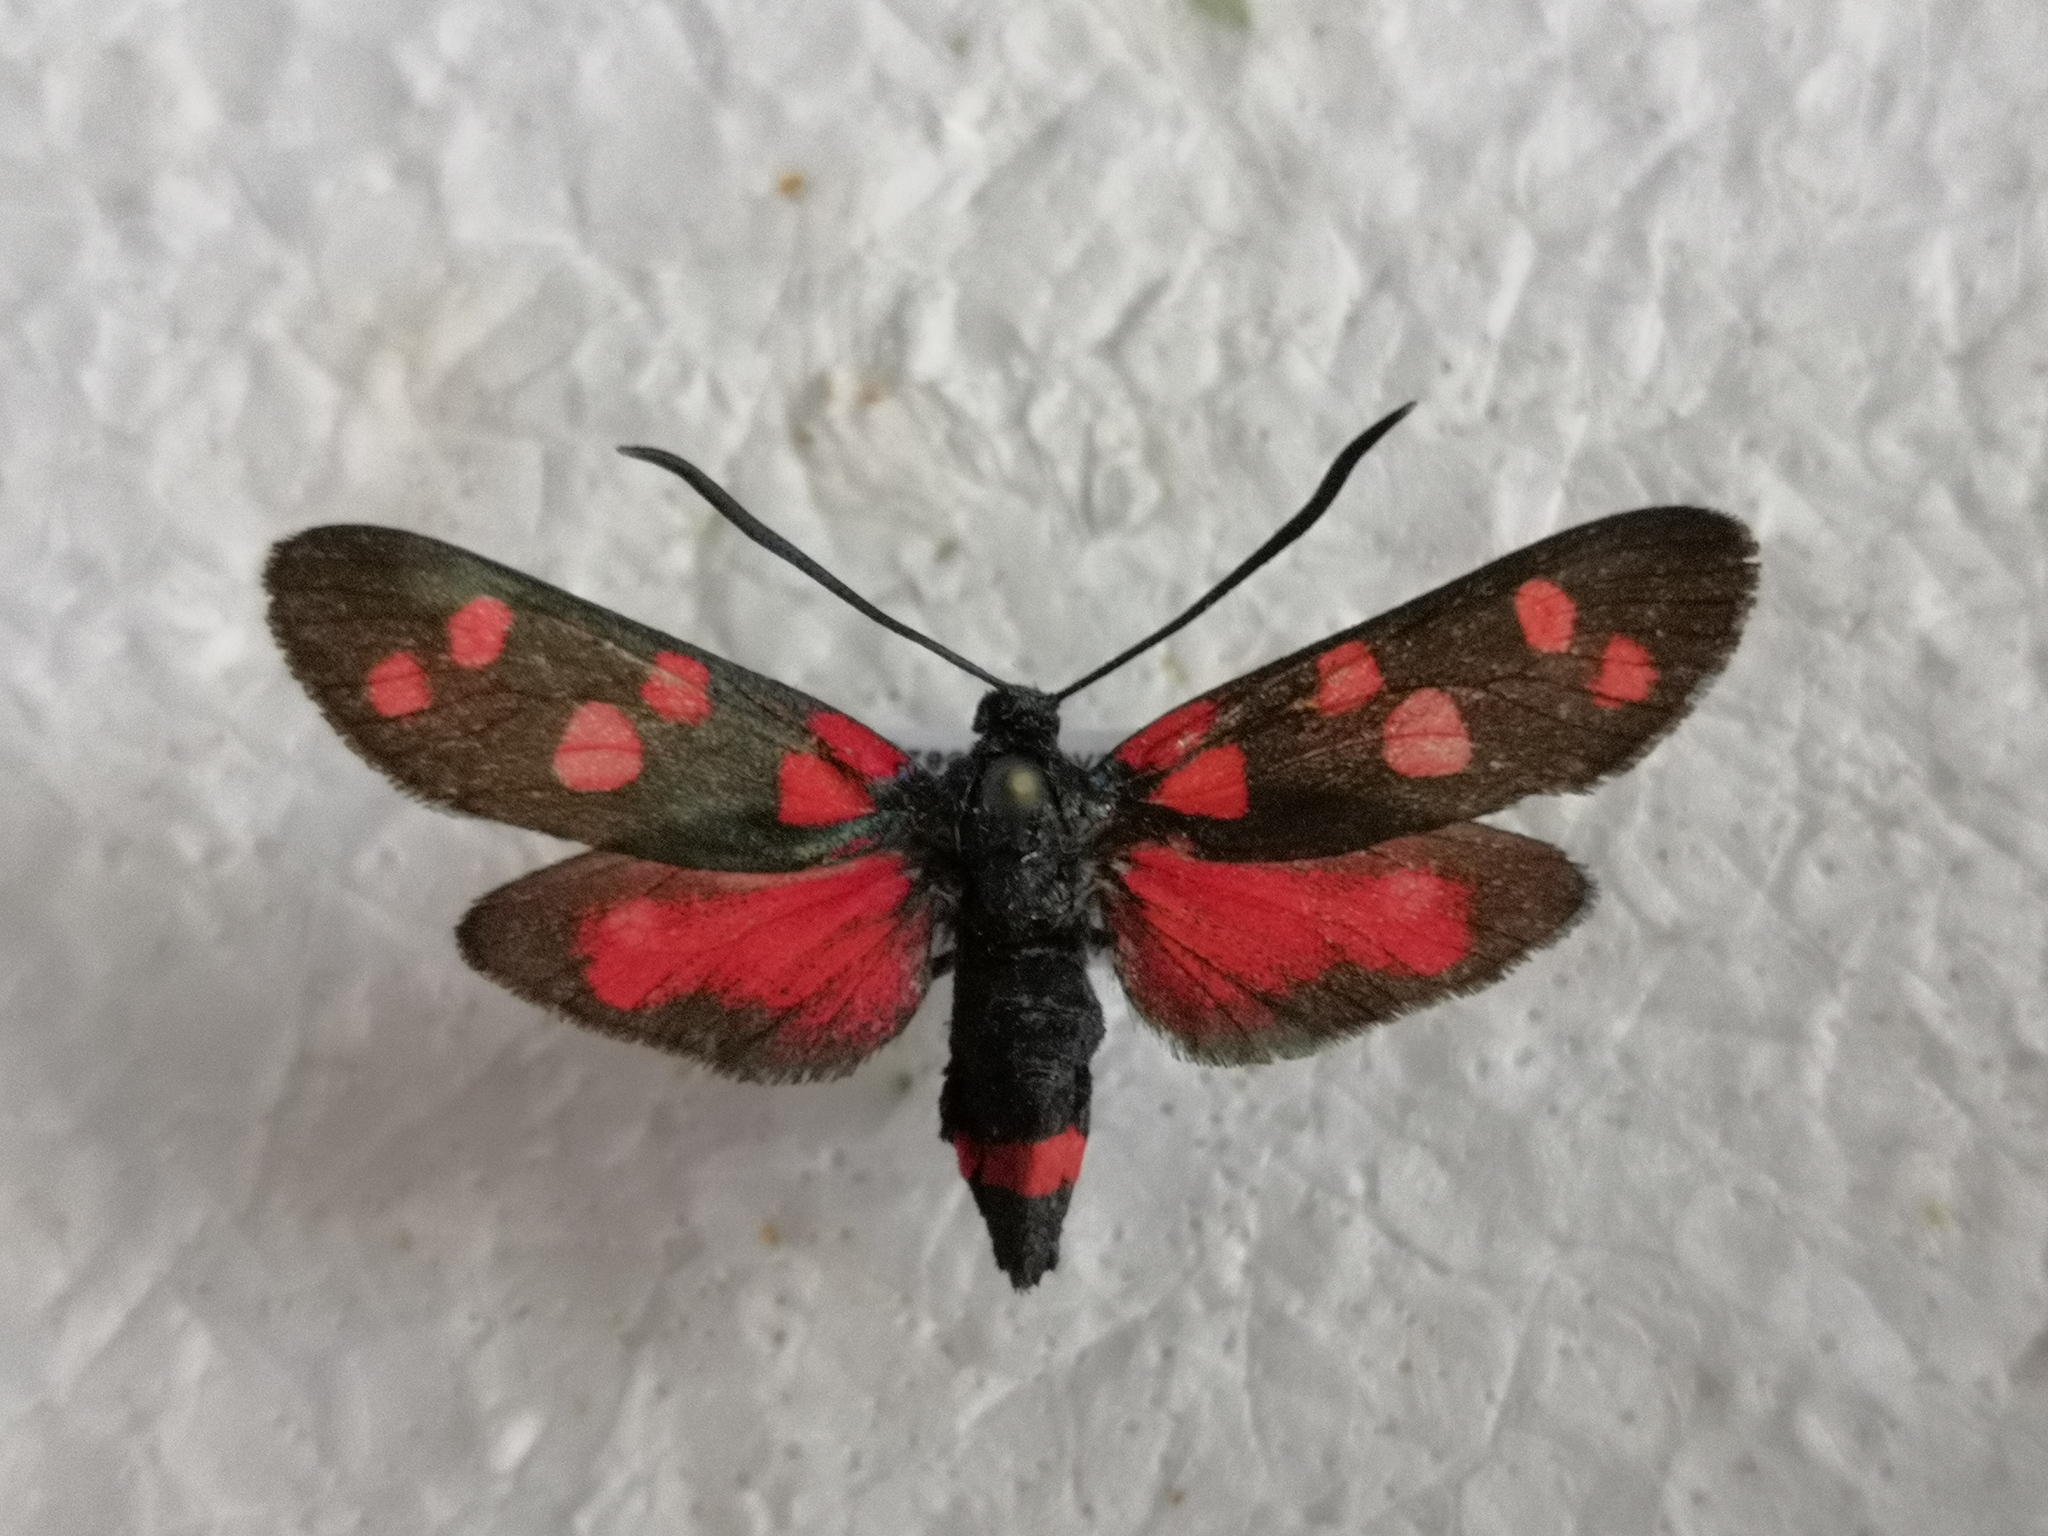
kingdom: Animalia
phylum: Arthropoda
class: Insecta
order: Lepidoptera
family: Zygaenidae
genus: Zygaena
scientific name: Zygaena ephialtes
